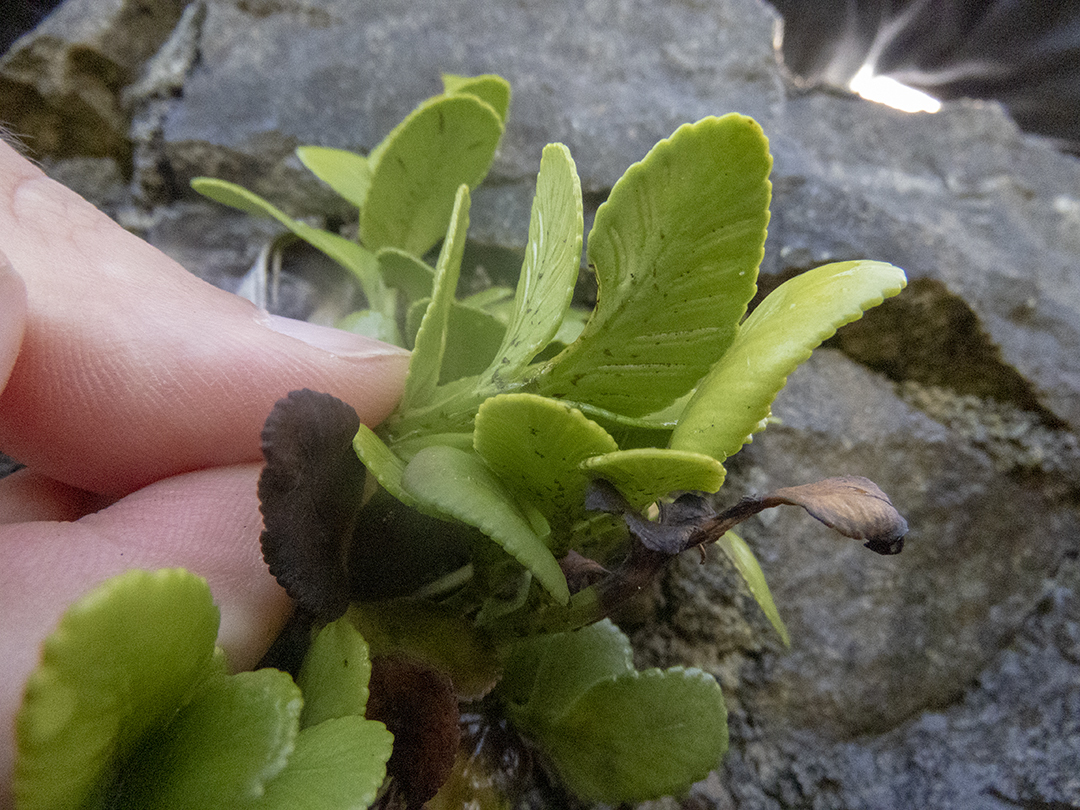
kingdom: Plantae
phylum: Tracheophyta
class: Polypodiopsida
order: Polypodiales
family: Aspleniaceae
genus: Asplenium
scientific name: Asplenium obtusatum
